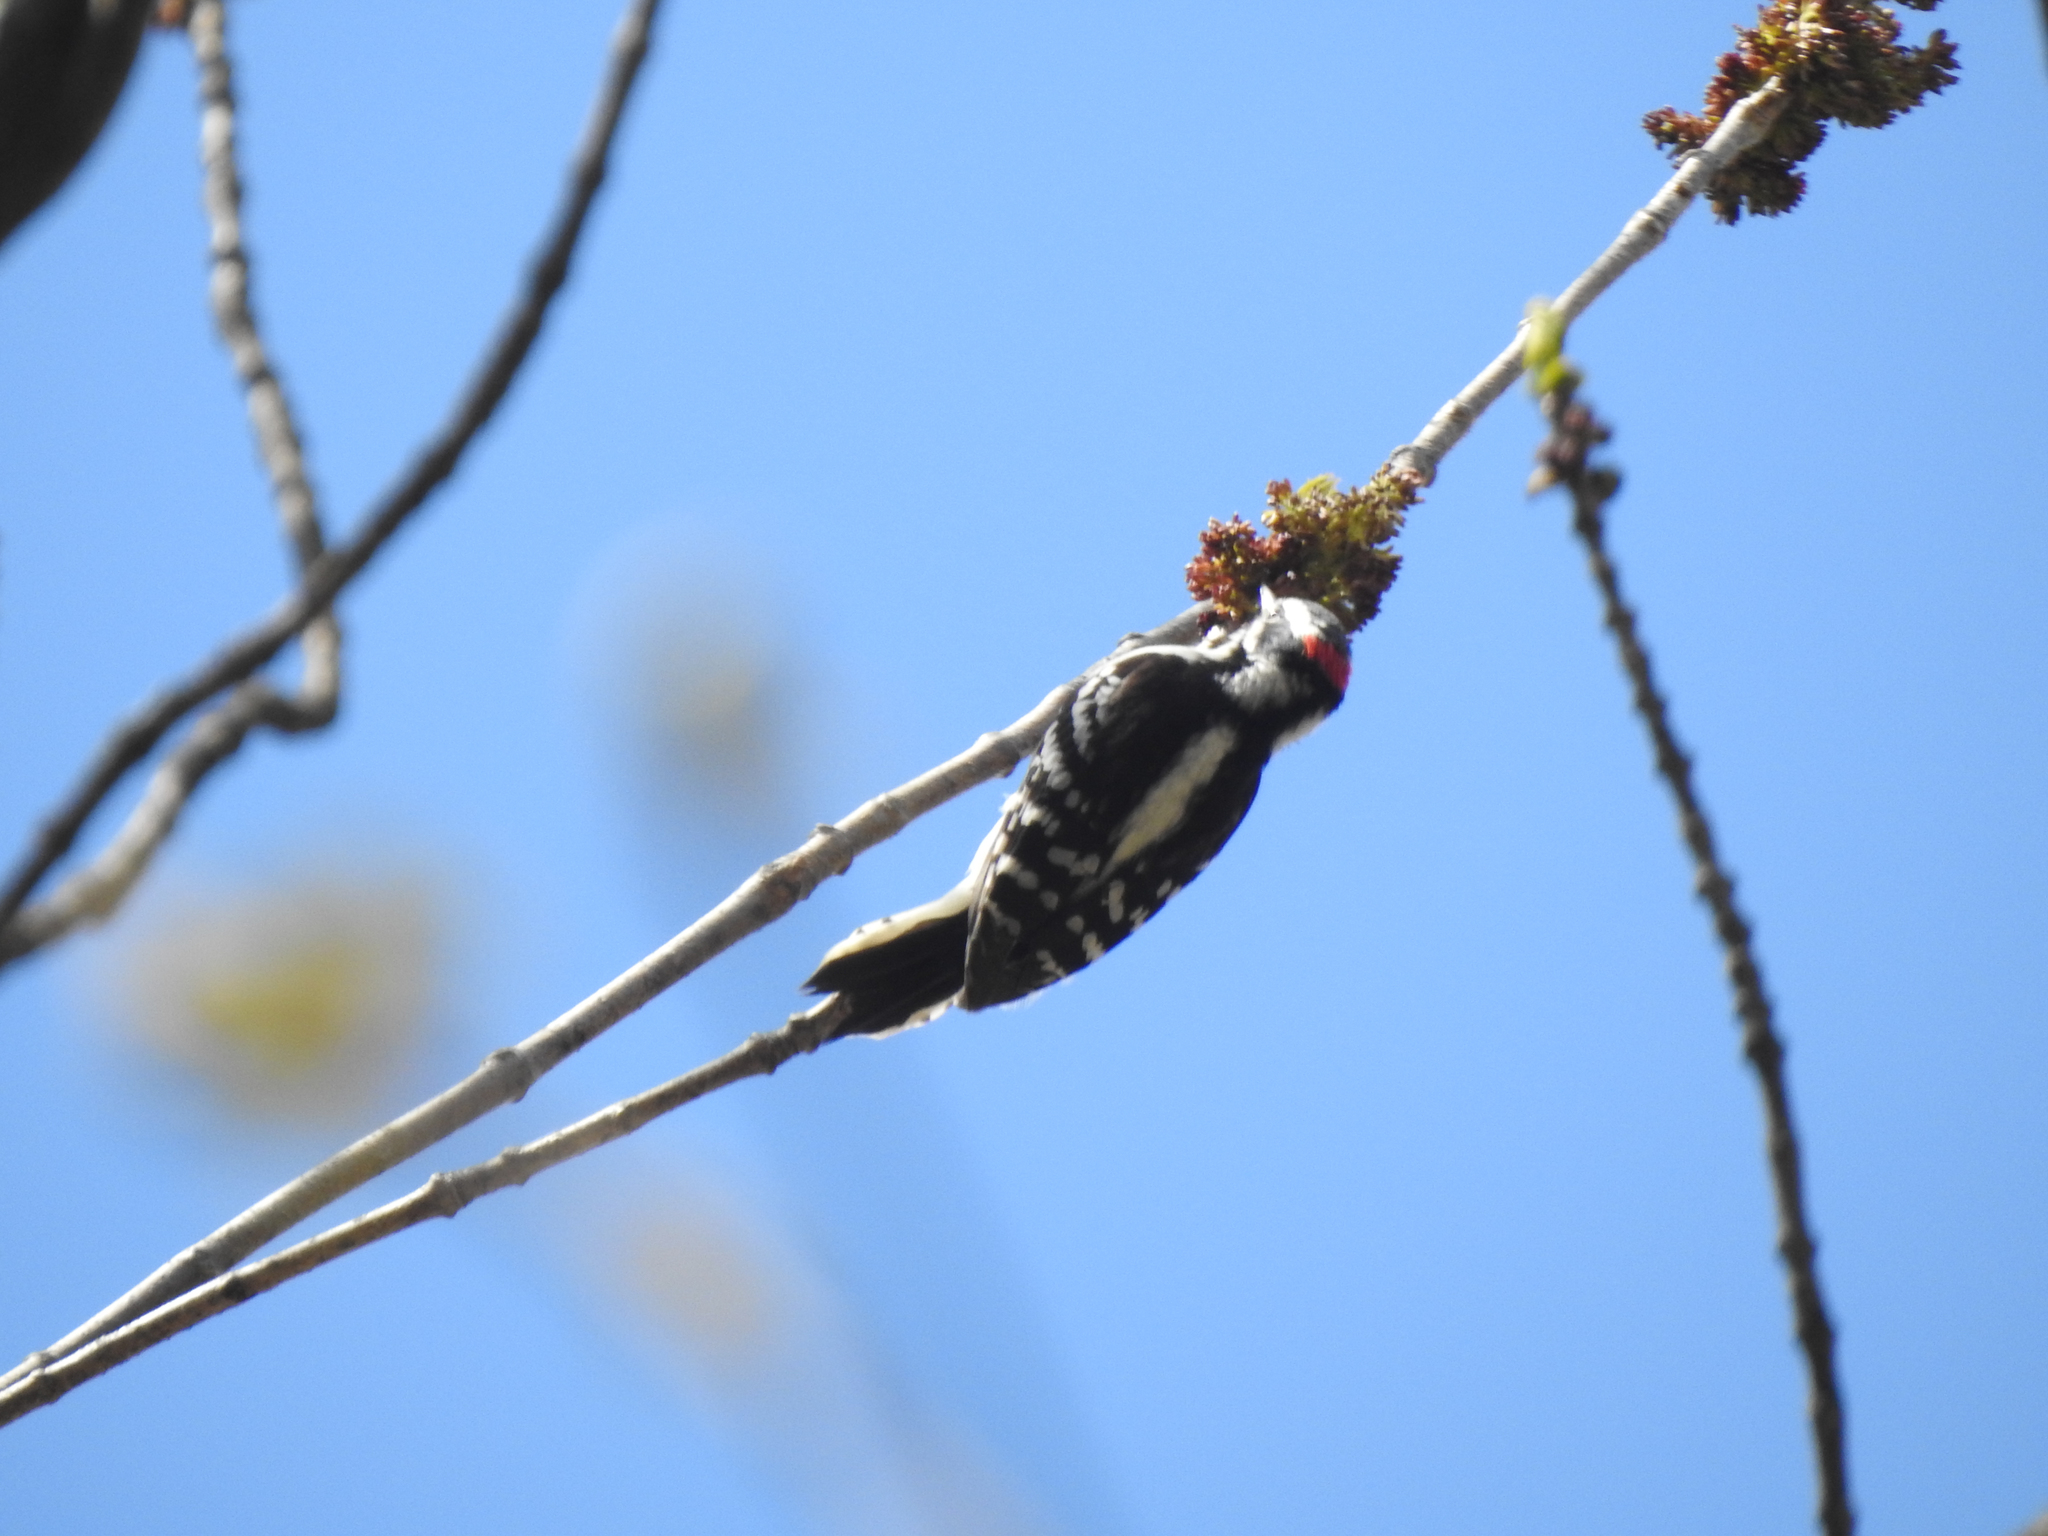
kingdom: Animalia
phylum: Chordata
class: Aves
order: Piciformes
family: Picidae
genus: Dryobates
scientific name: Dryobates pubescens
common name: Downy woodpecker
